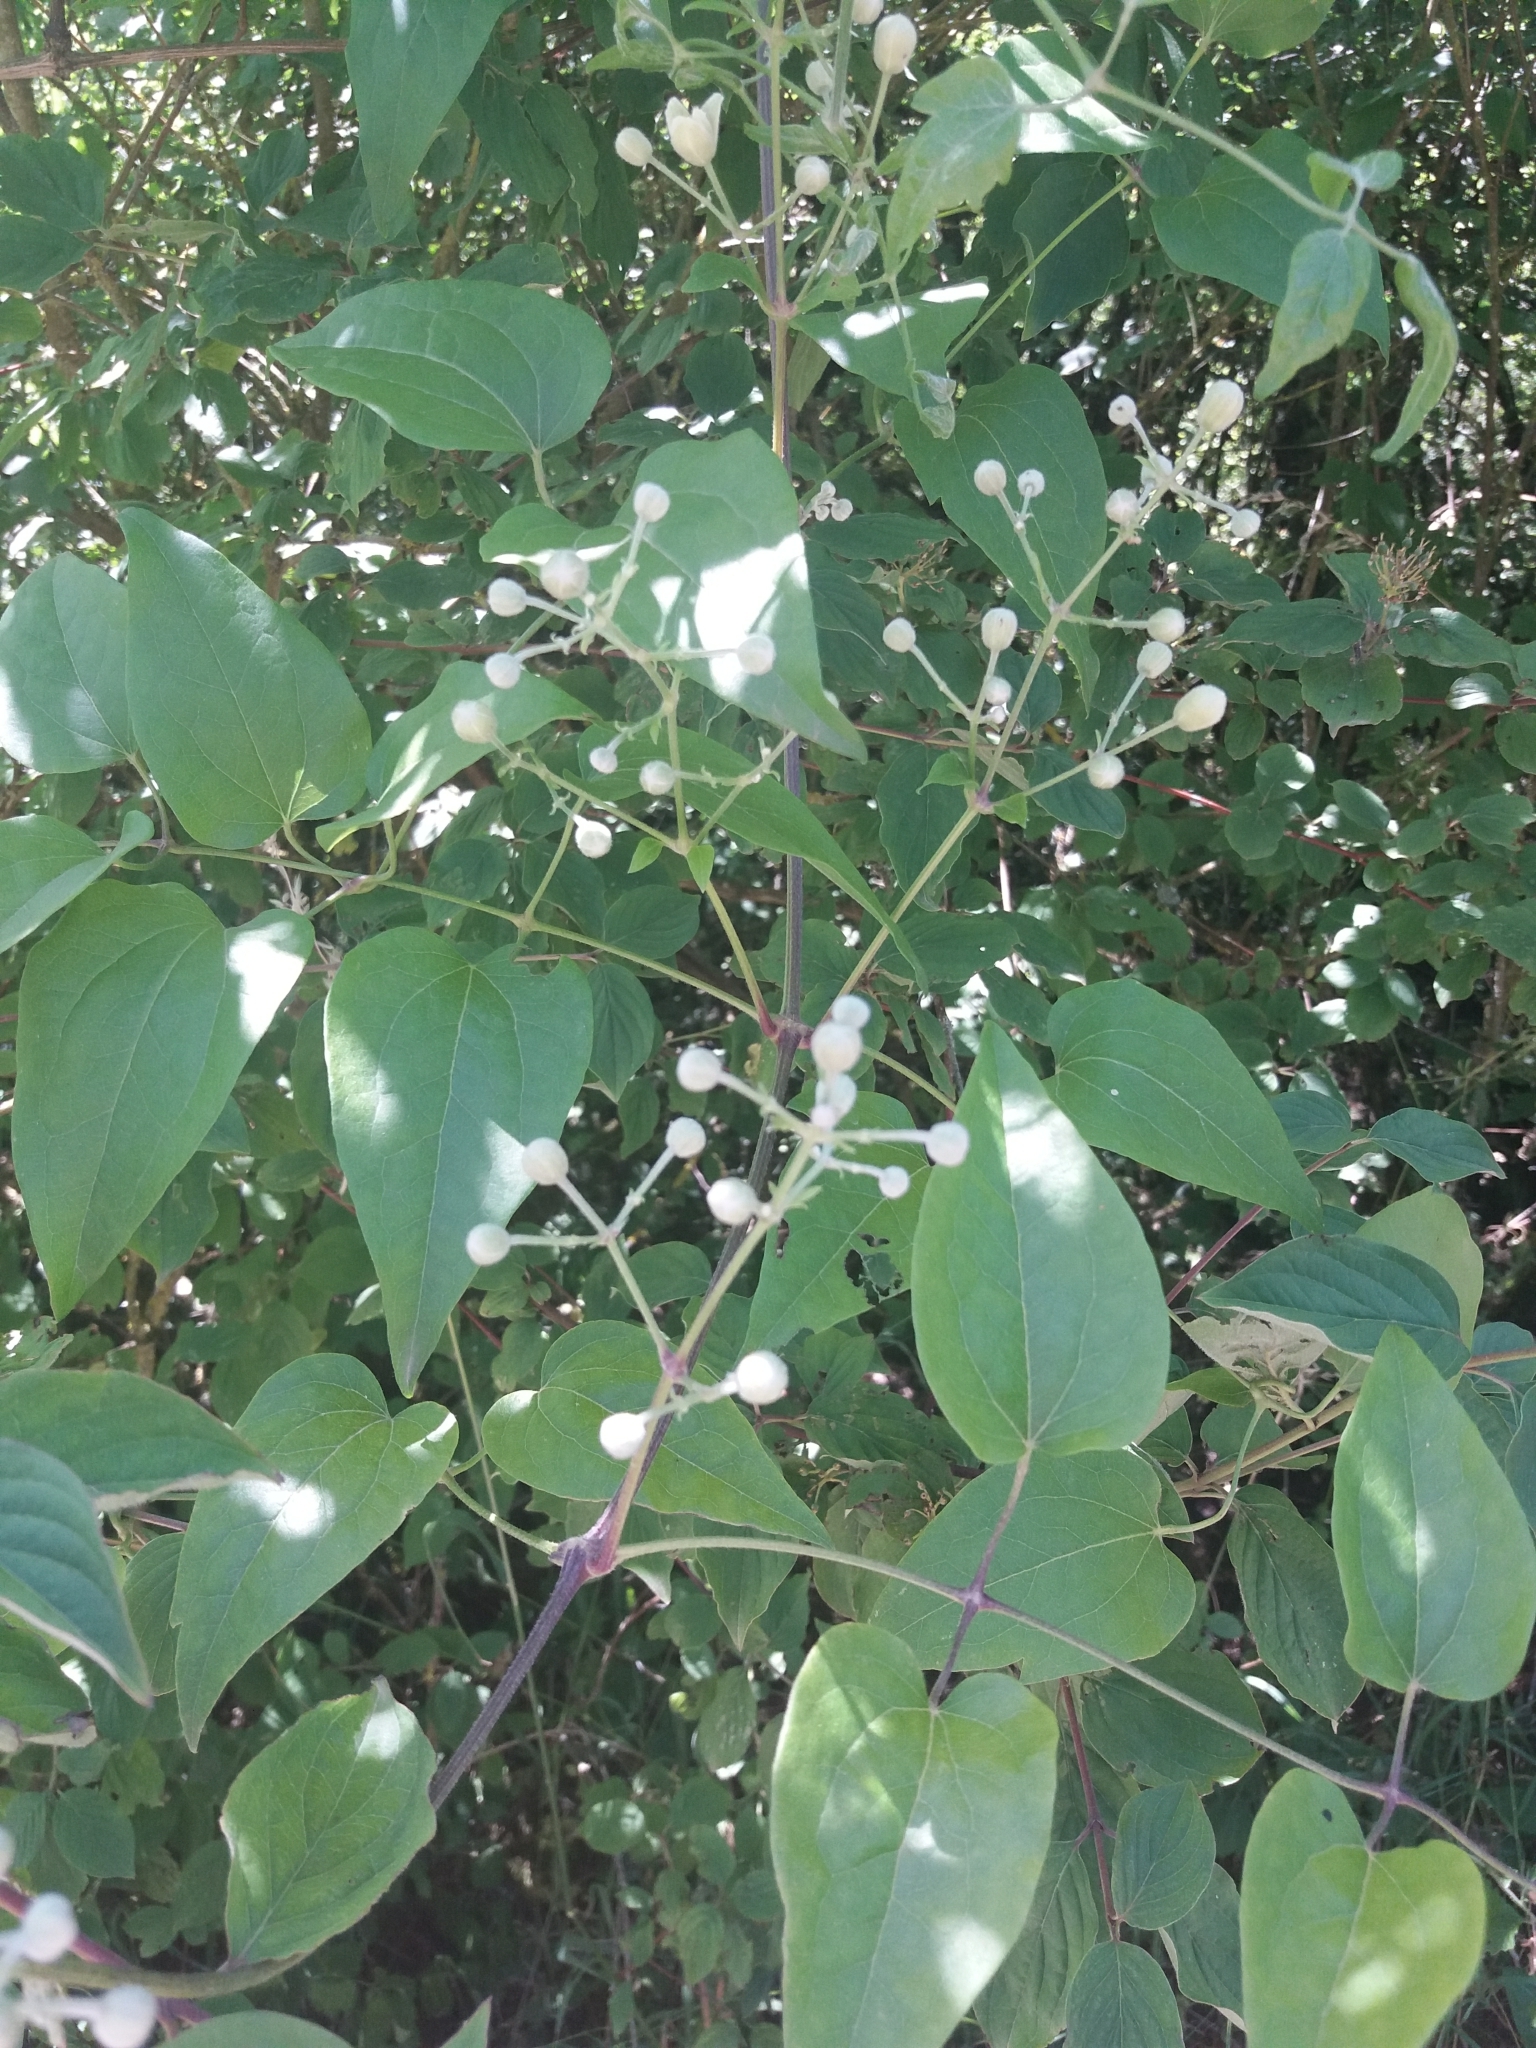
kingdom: Plantae
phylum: Tracheophyta
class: Magnoliopsida
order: Ranunculales
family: Ranunculaceae
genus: Clematis
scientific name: Clematis vitalba
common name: Evergreen clematis
